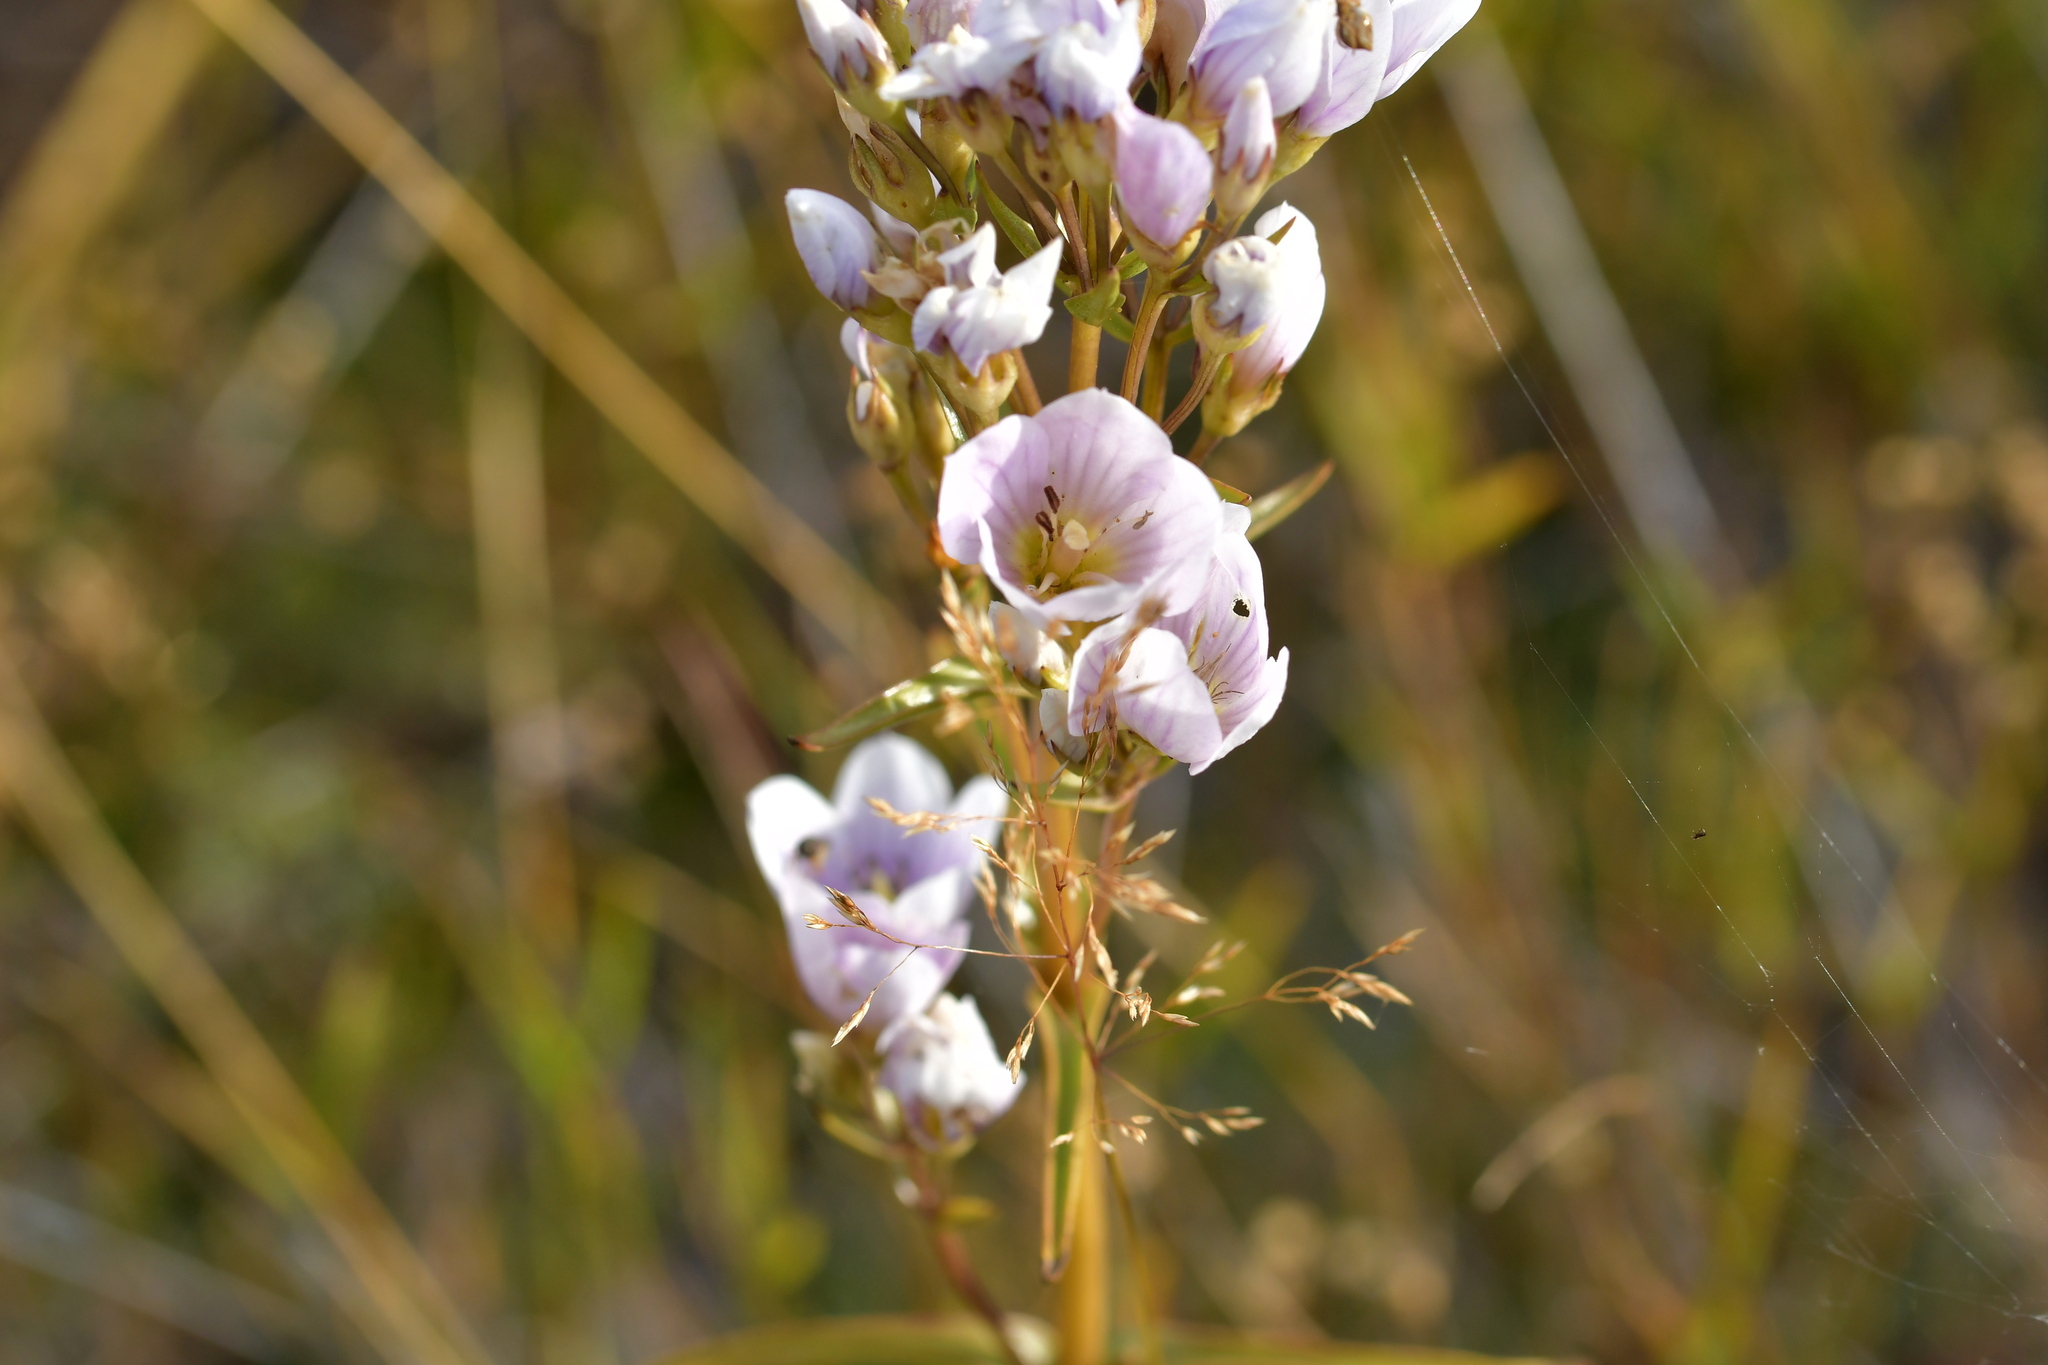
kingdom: Plantae
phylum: Tracheophyta
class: Magnoliopsida
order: Gentianales
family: Gentianaceae
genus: Gentianella
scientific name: Gentianella corymbifera
